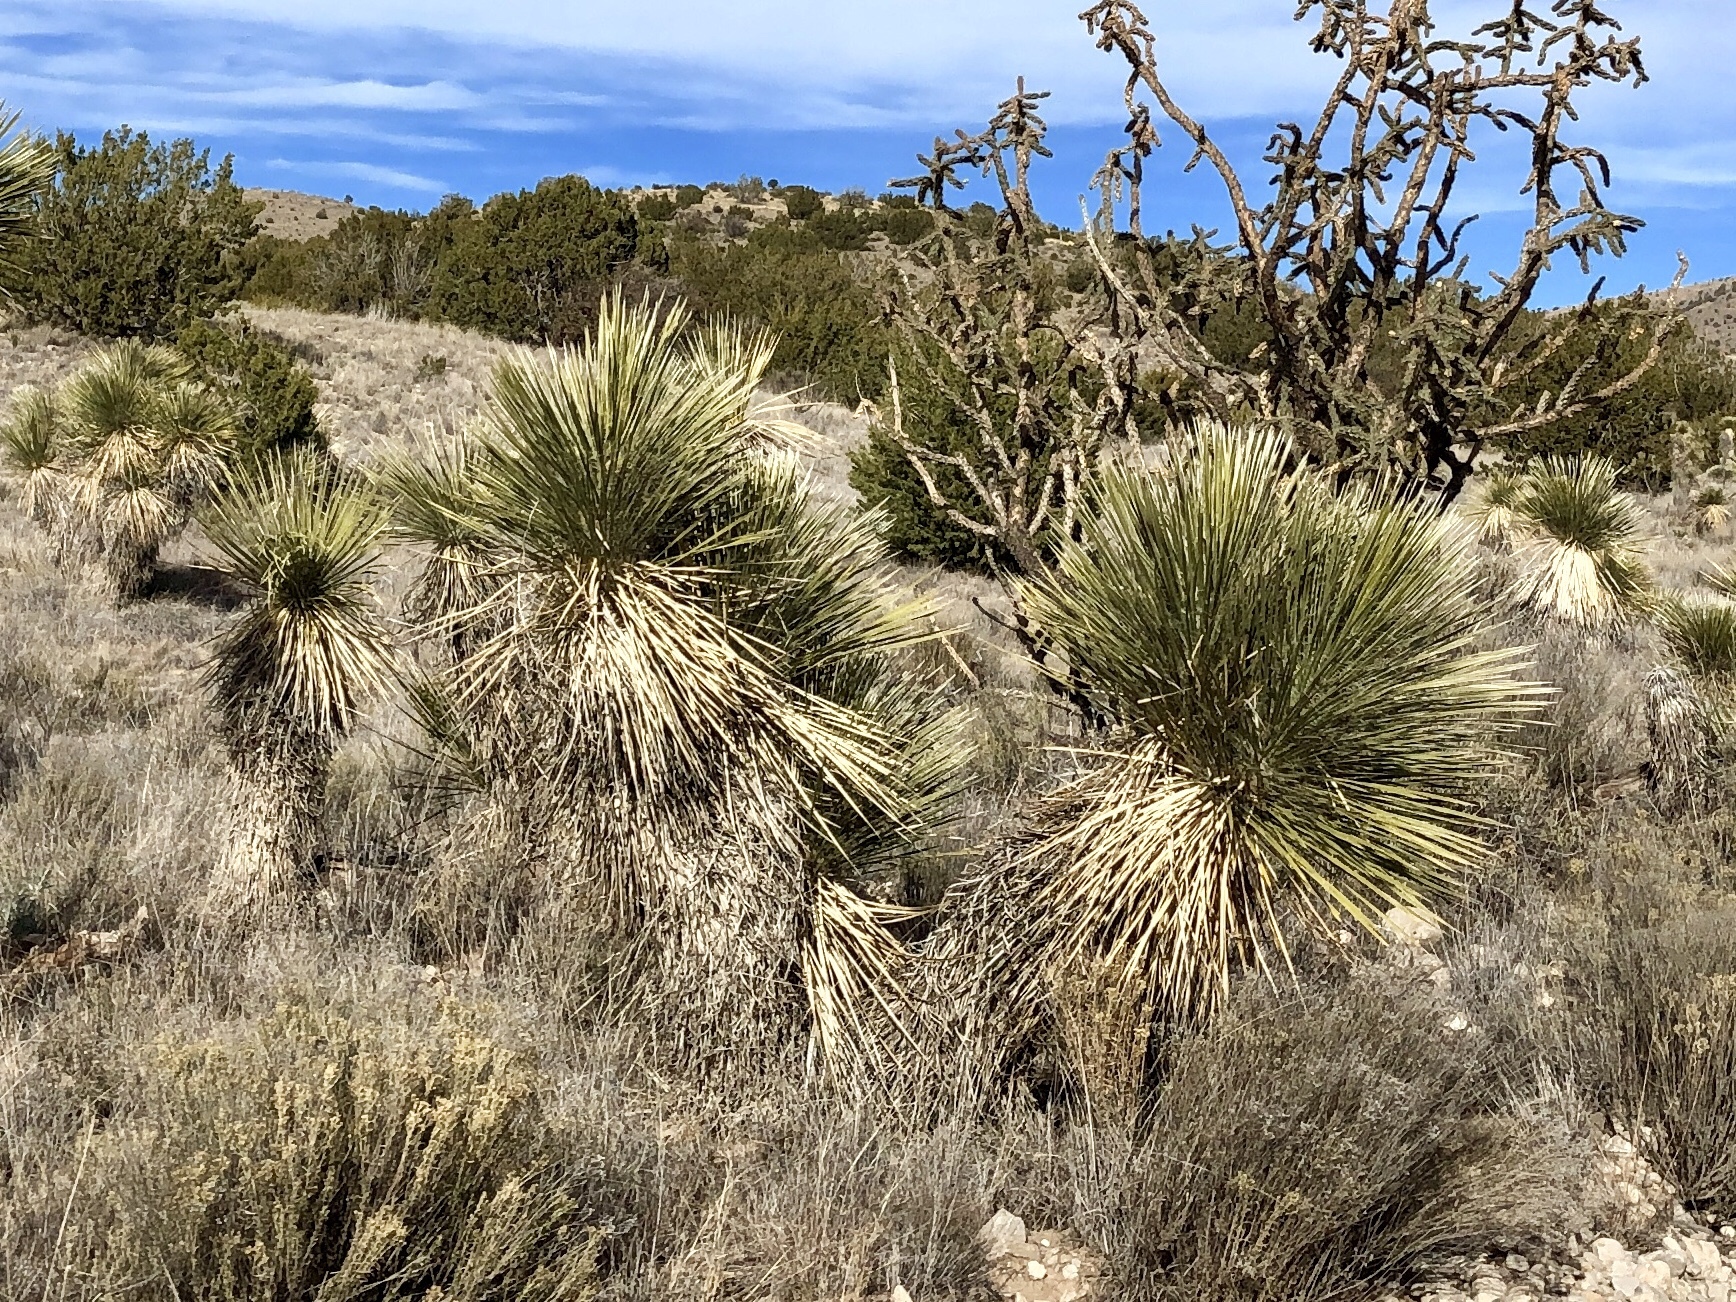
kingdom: Plantae
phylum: Tracheophyta
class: Liliopsida
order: Asparagales
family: Asparagaceae
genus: Yucca
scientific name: Yucca elata
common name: Palmella
